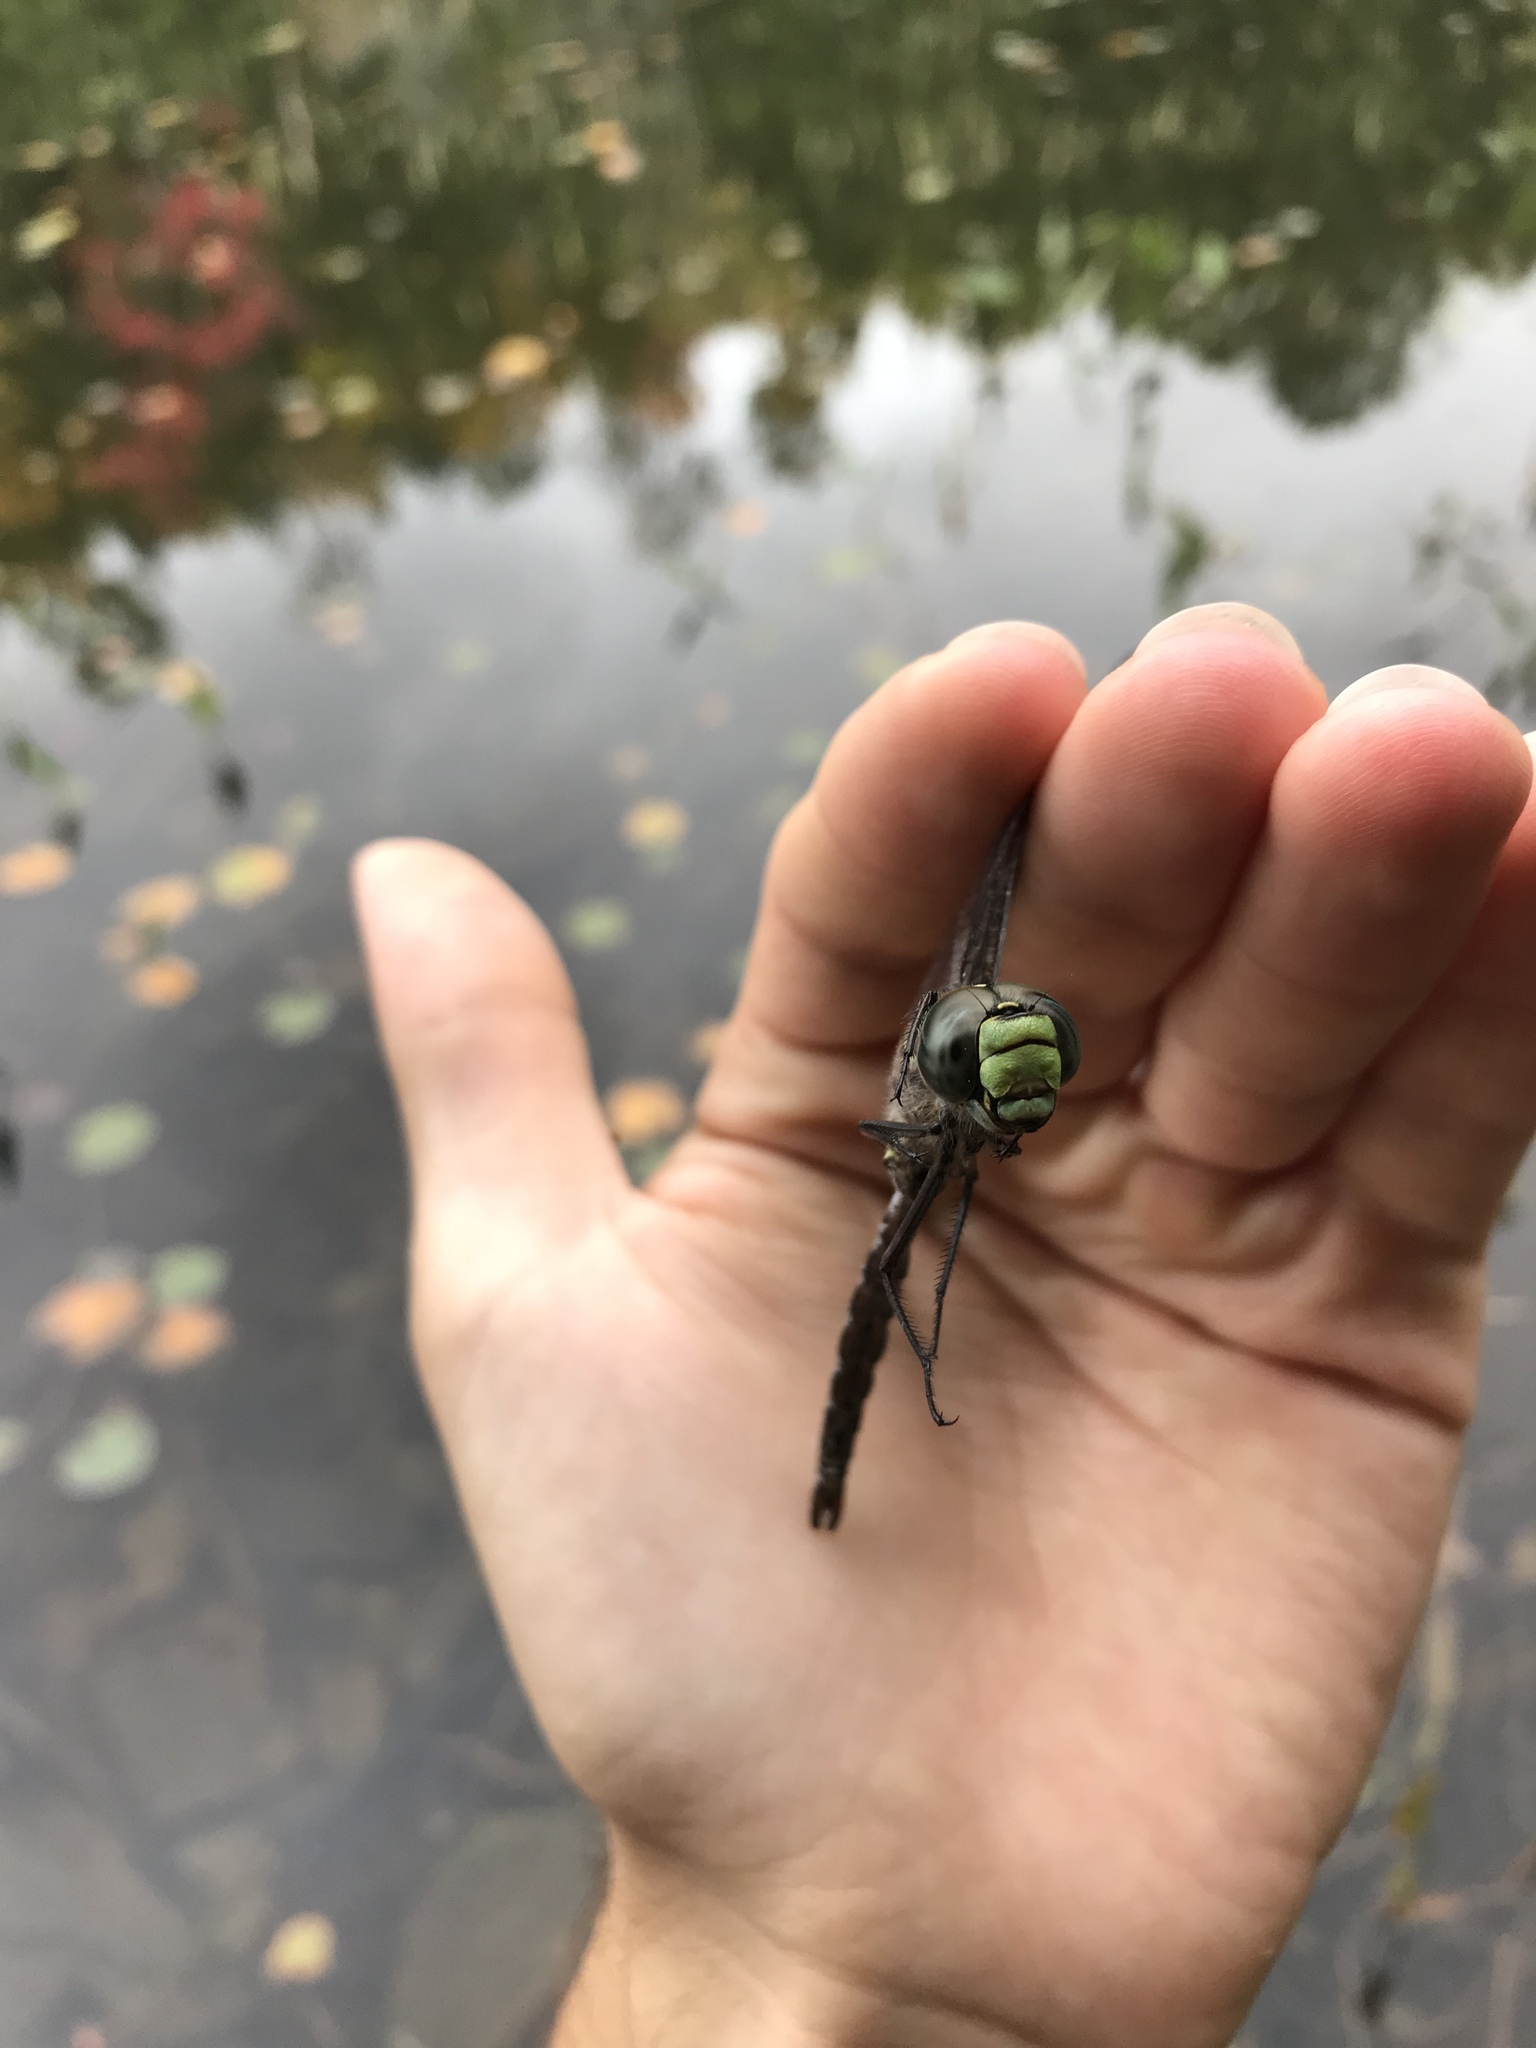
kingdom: Animalia
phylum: Arthropoda
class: Insecta
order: Odonata
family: Aeshnidae
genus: Aeshna
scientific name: Aeshna eremita
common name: Lake darner
